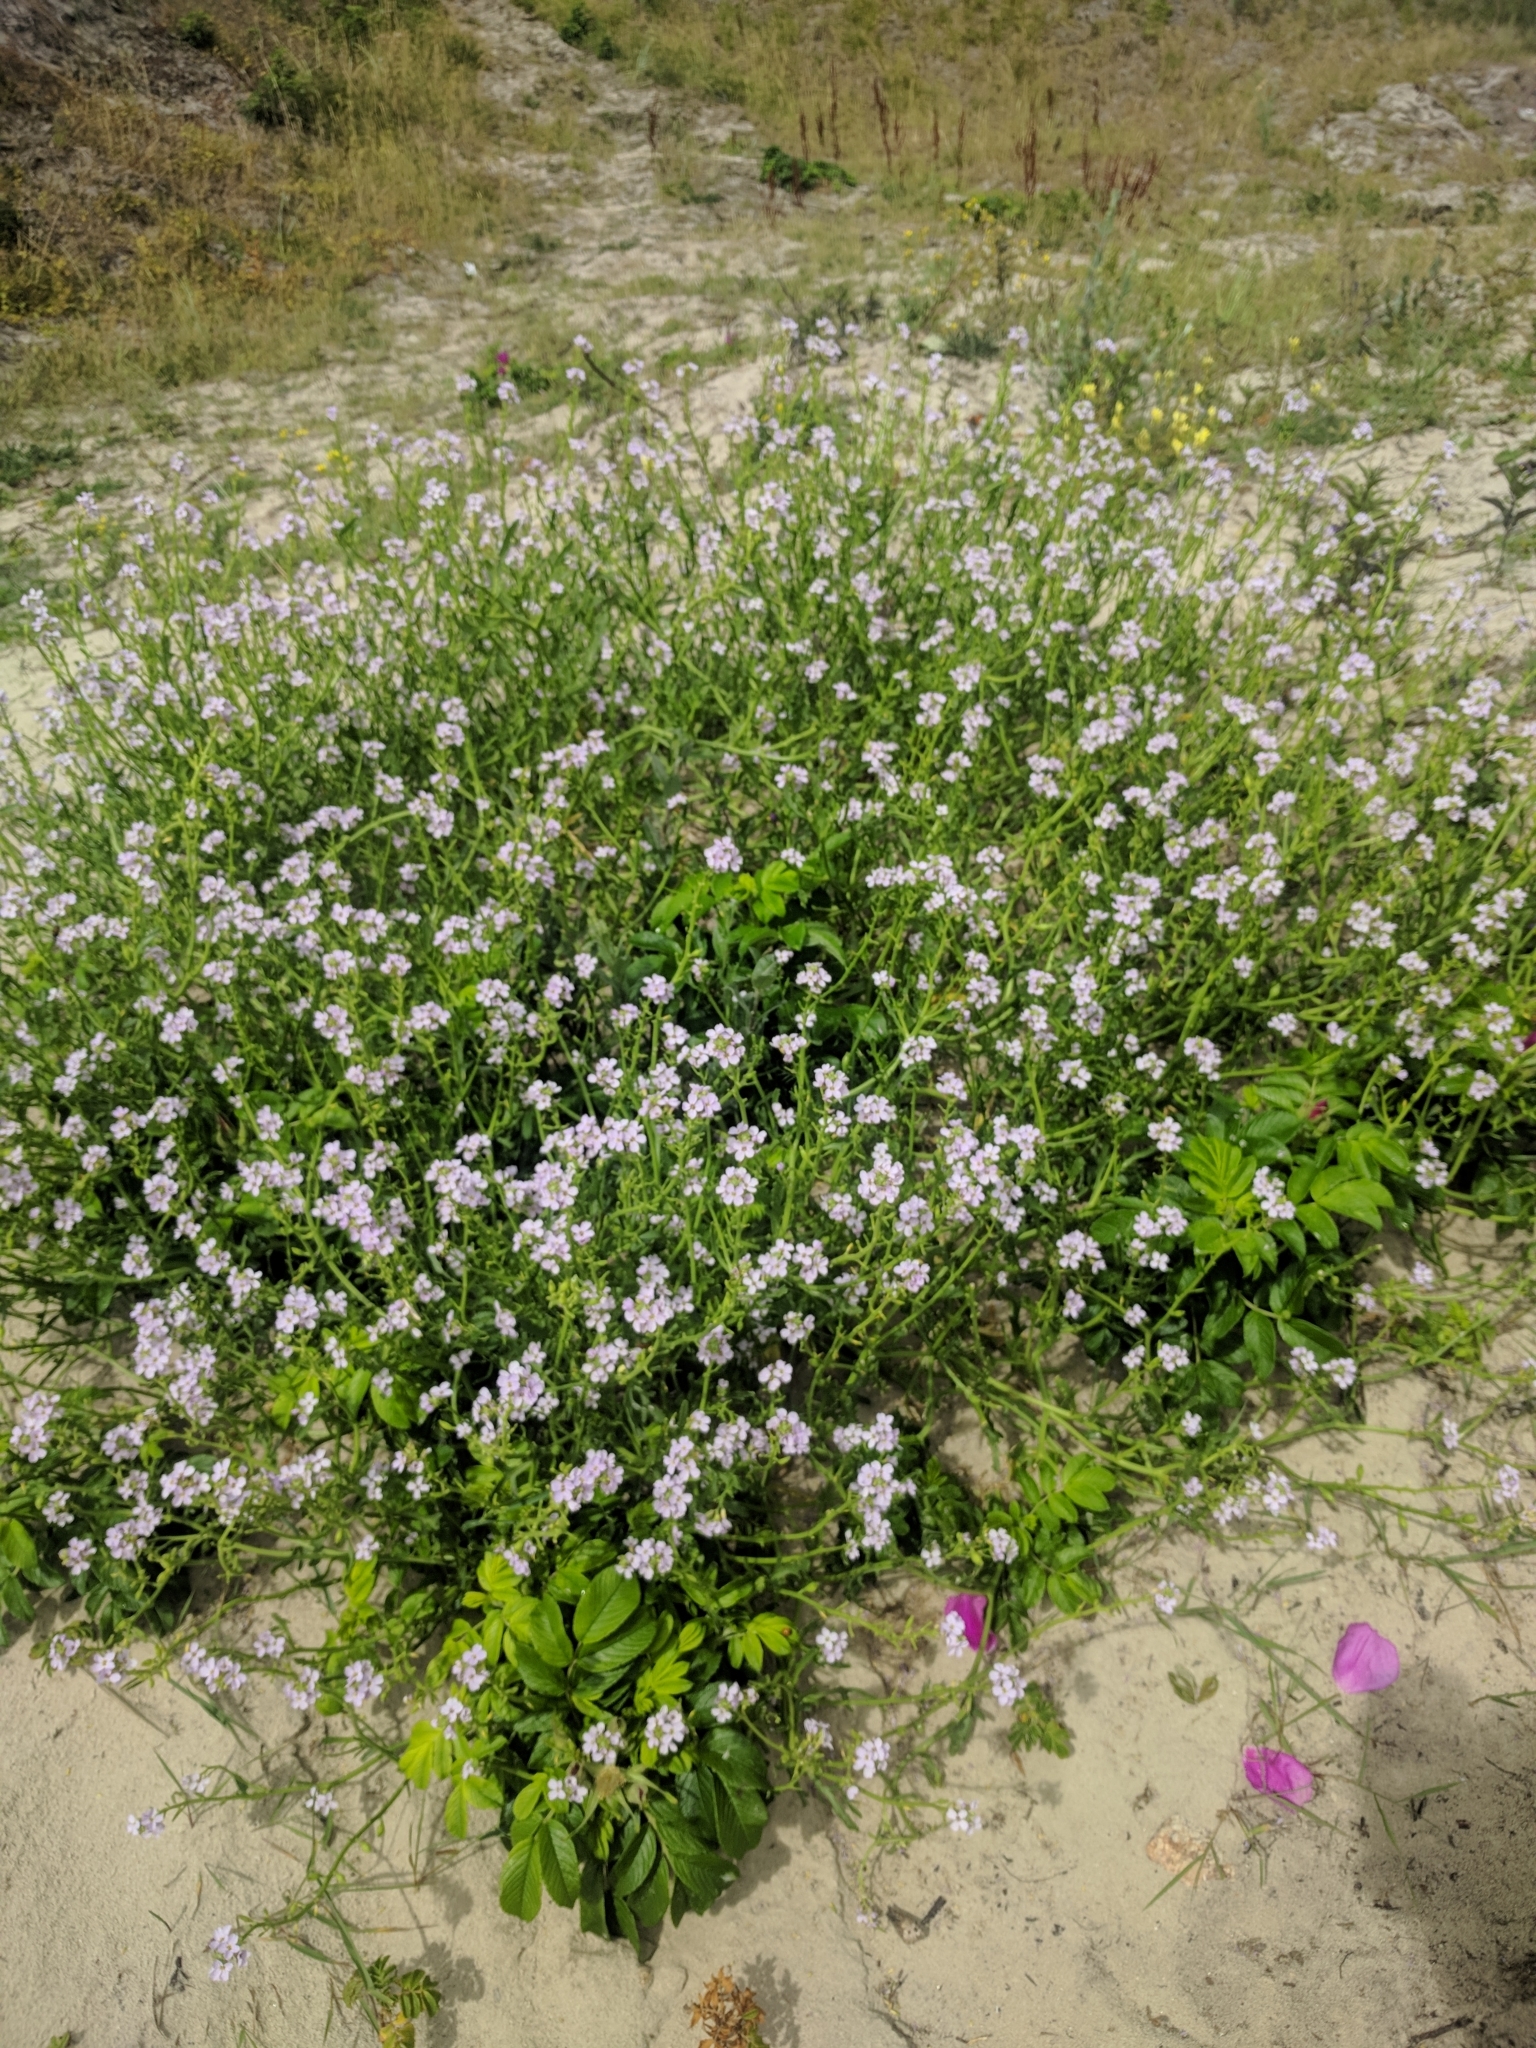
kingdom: Plantae
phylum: Tracheophyta
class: Magnoliopsida
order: Brassicales
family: Brassicaceae
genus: Cakile
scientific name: Cakile maritima
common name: Sea rocket
